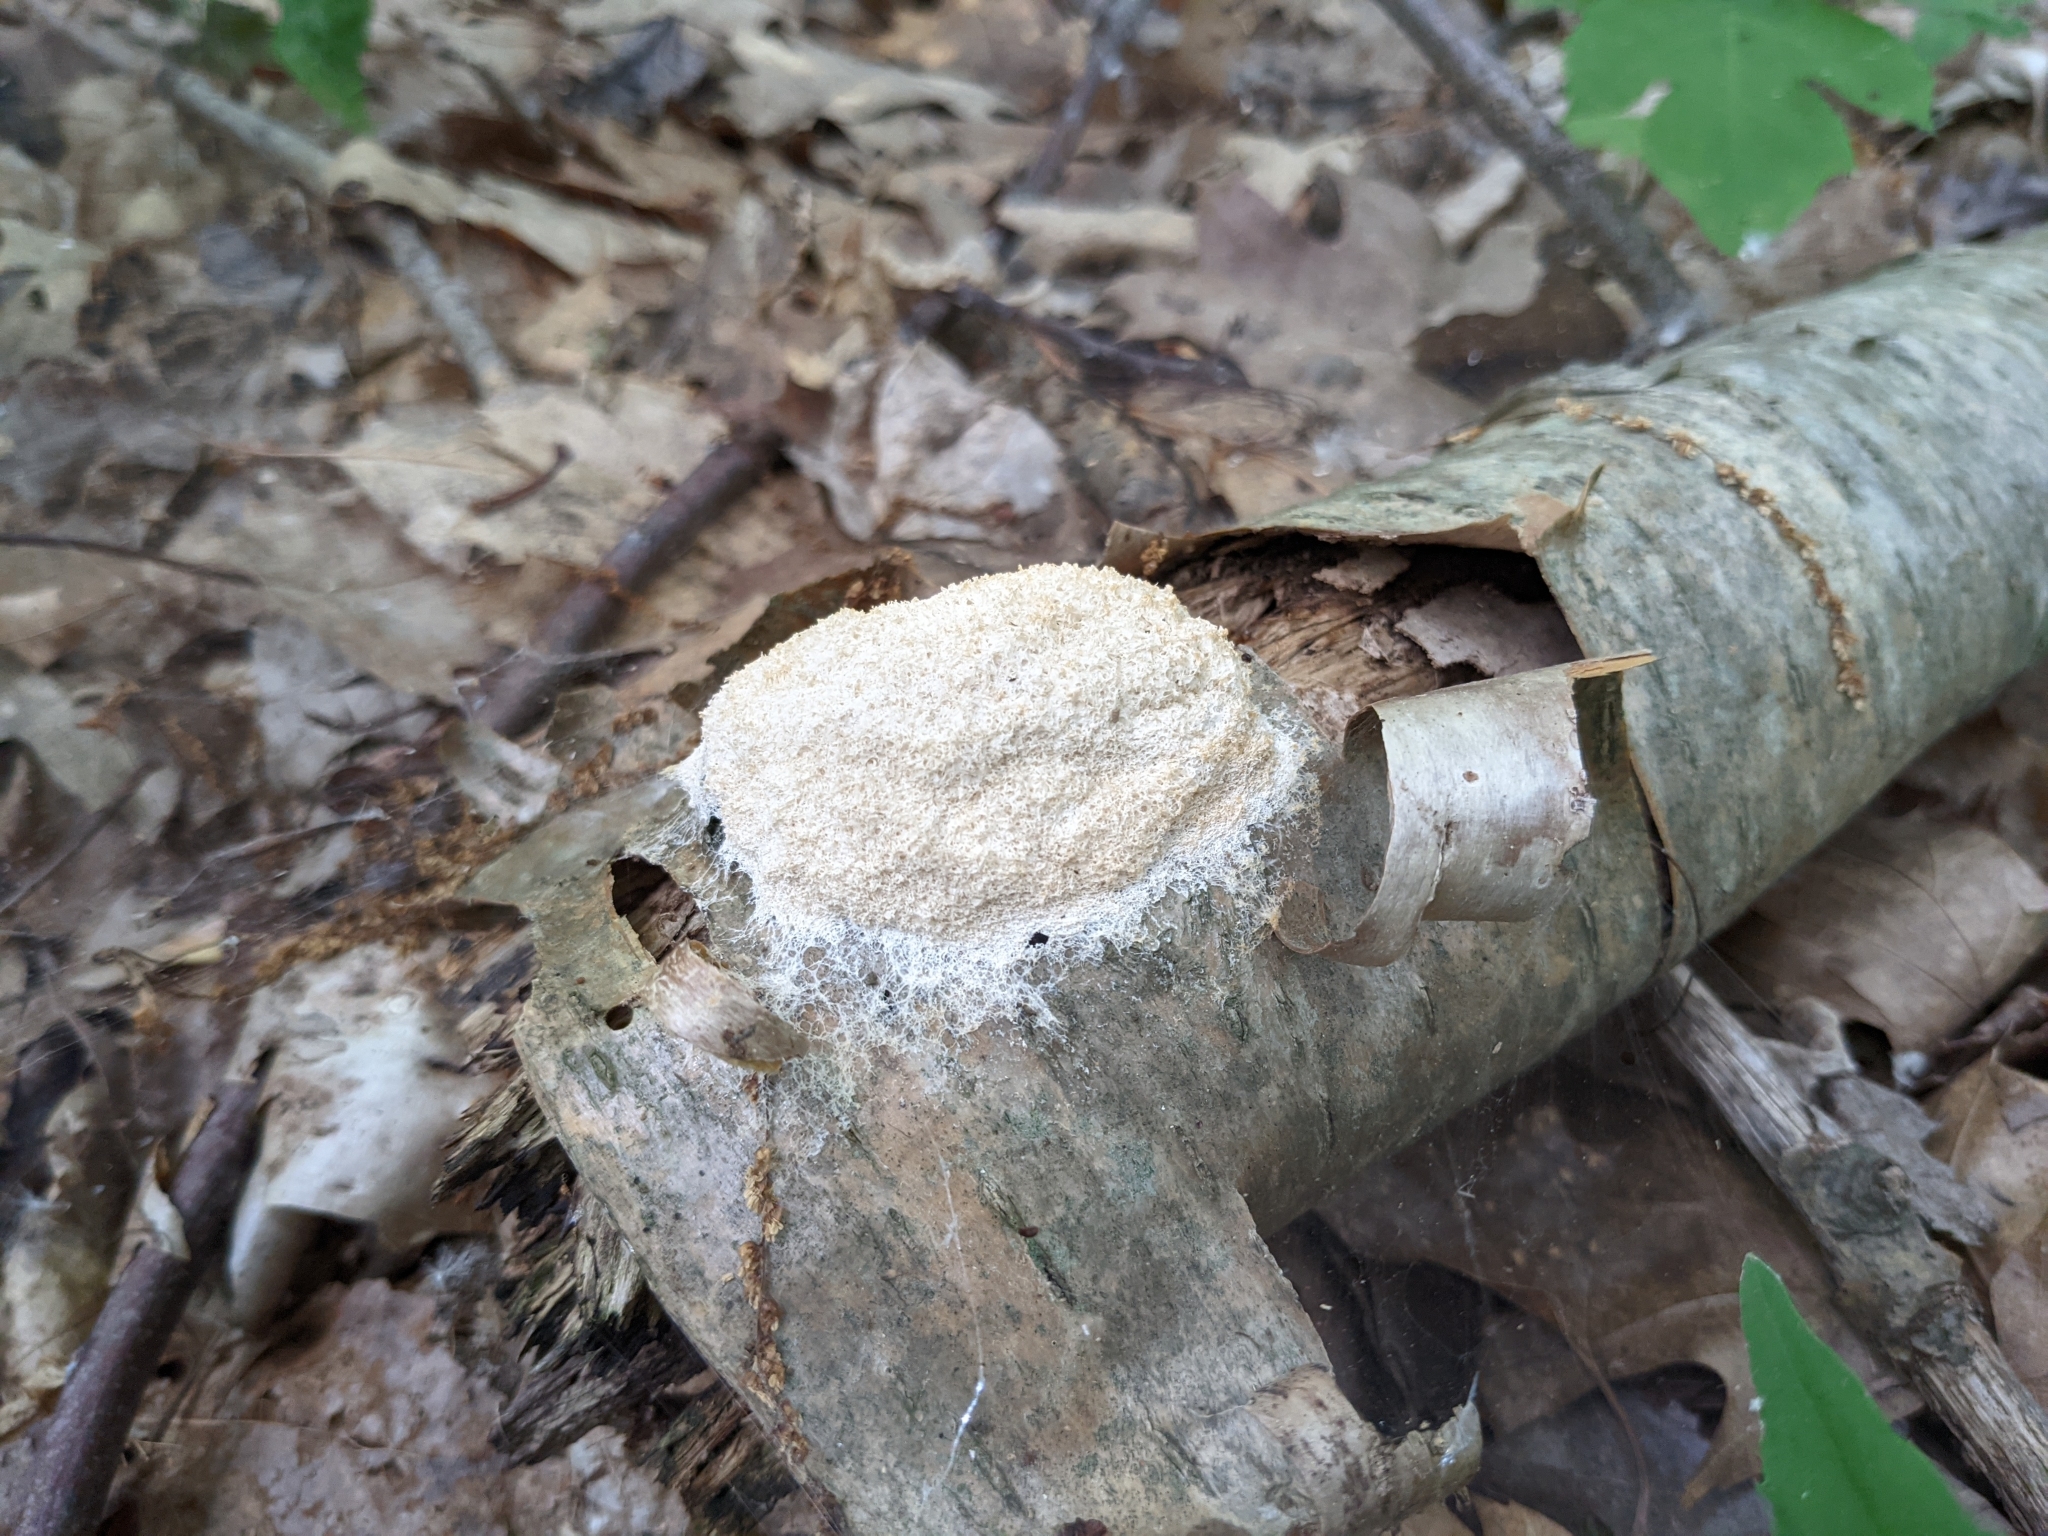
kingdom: Protozoa
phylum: Mycetozoa
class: Myxomycetes
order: Physarales
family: Physaraceae
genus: Fuligo
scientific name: Fuligo septica
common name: Dog vomit slime mold
